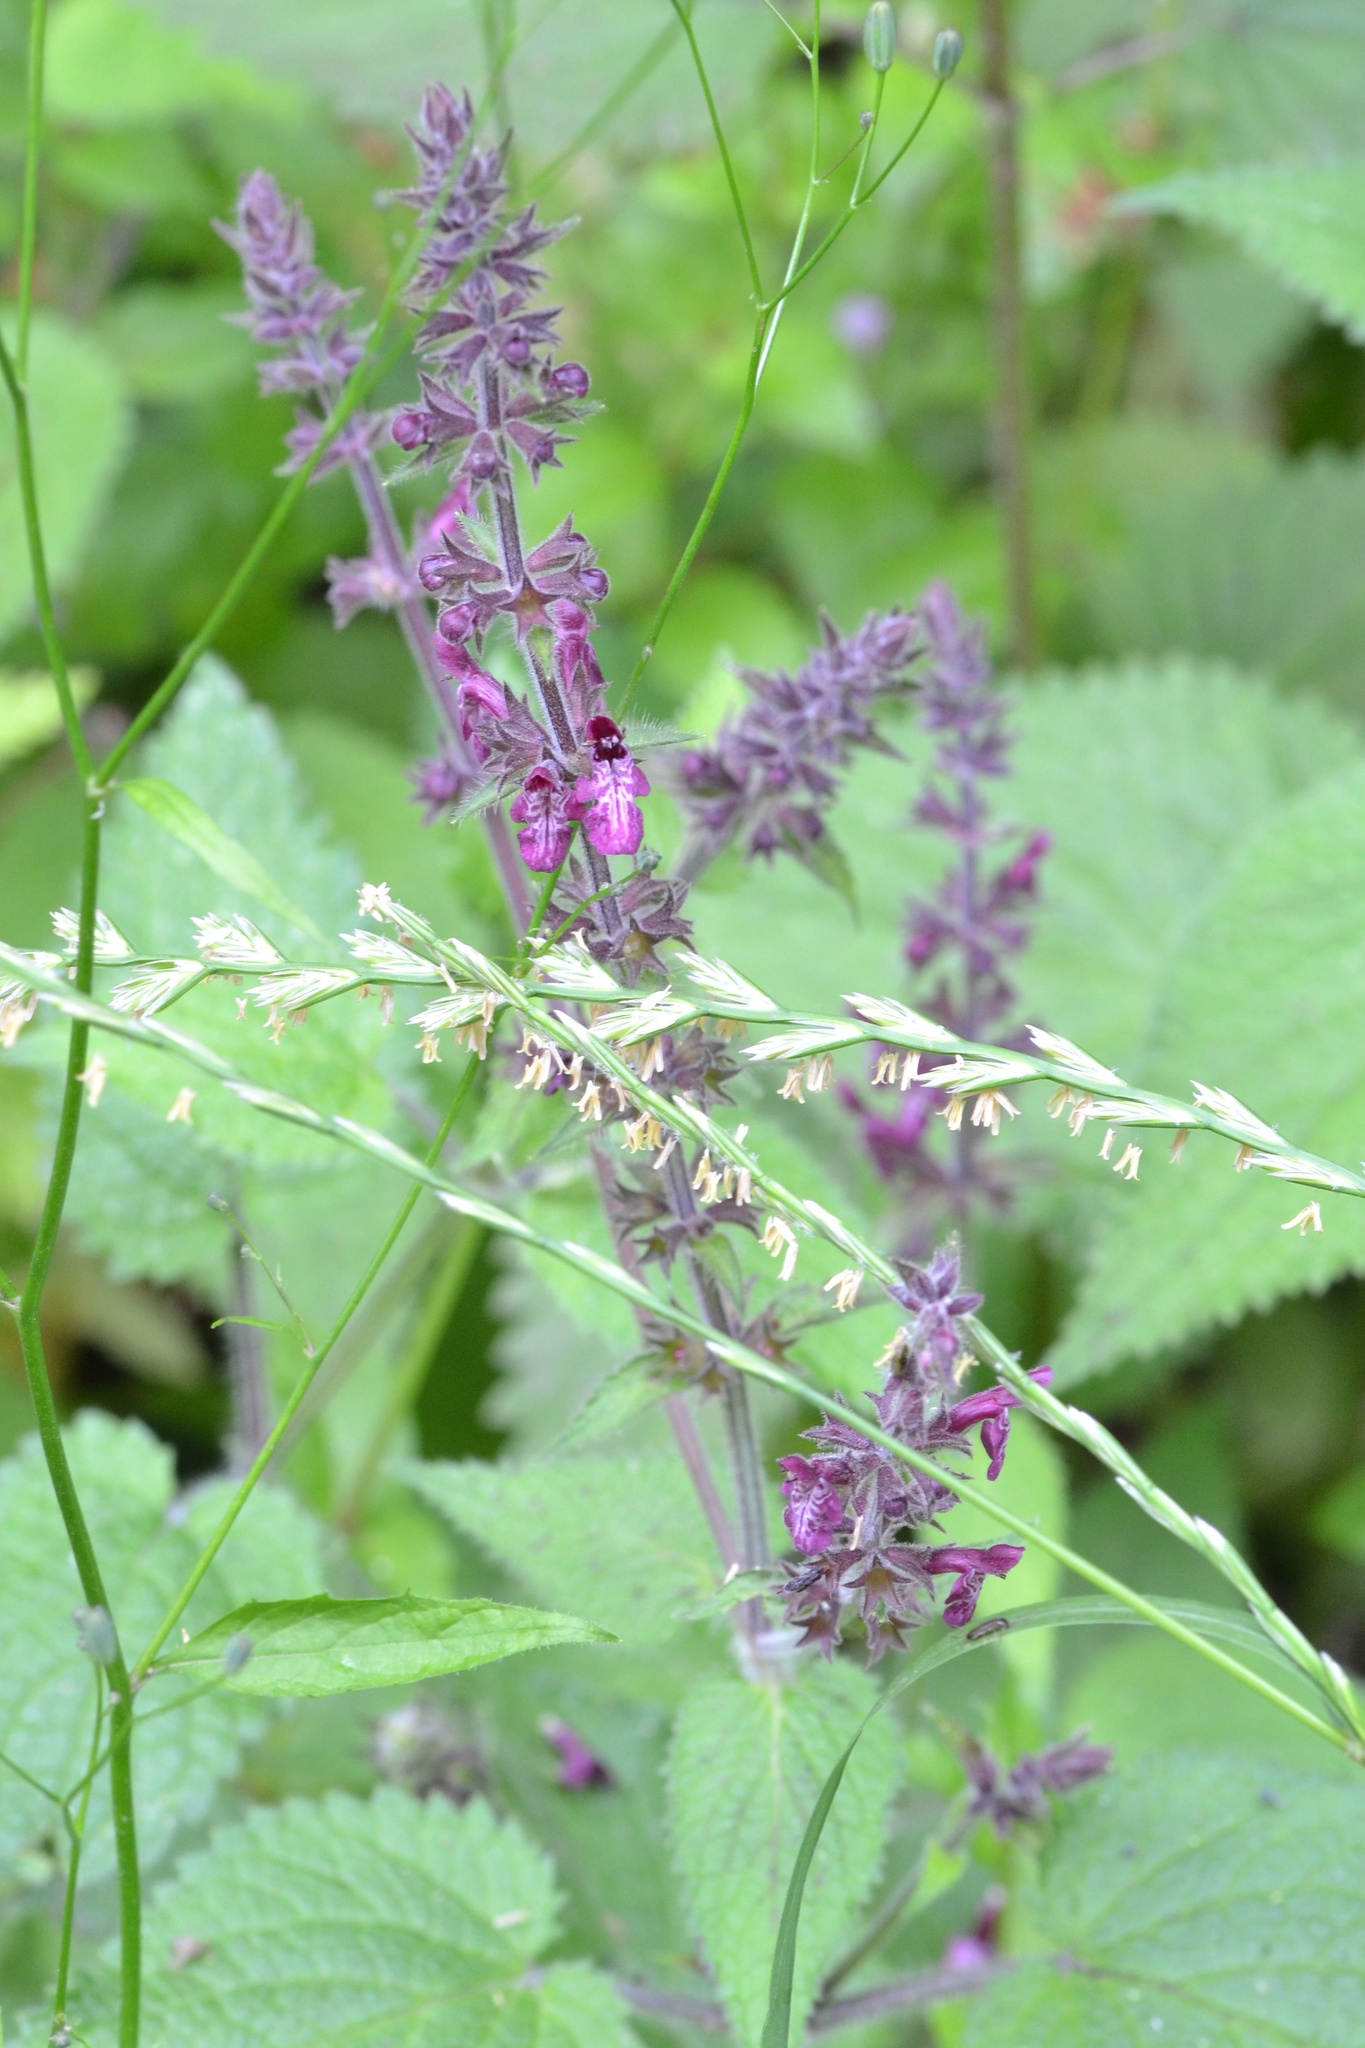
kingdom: Plantae
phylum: Tracheophyta
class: Magnoliopsida
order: Lamiales
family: Lamiaceae
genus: Stachys
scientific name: Stachys sylvatica
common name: Hedge woundwort
